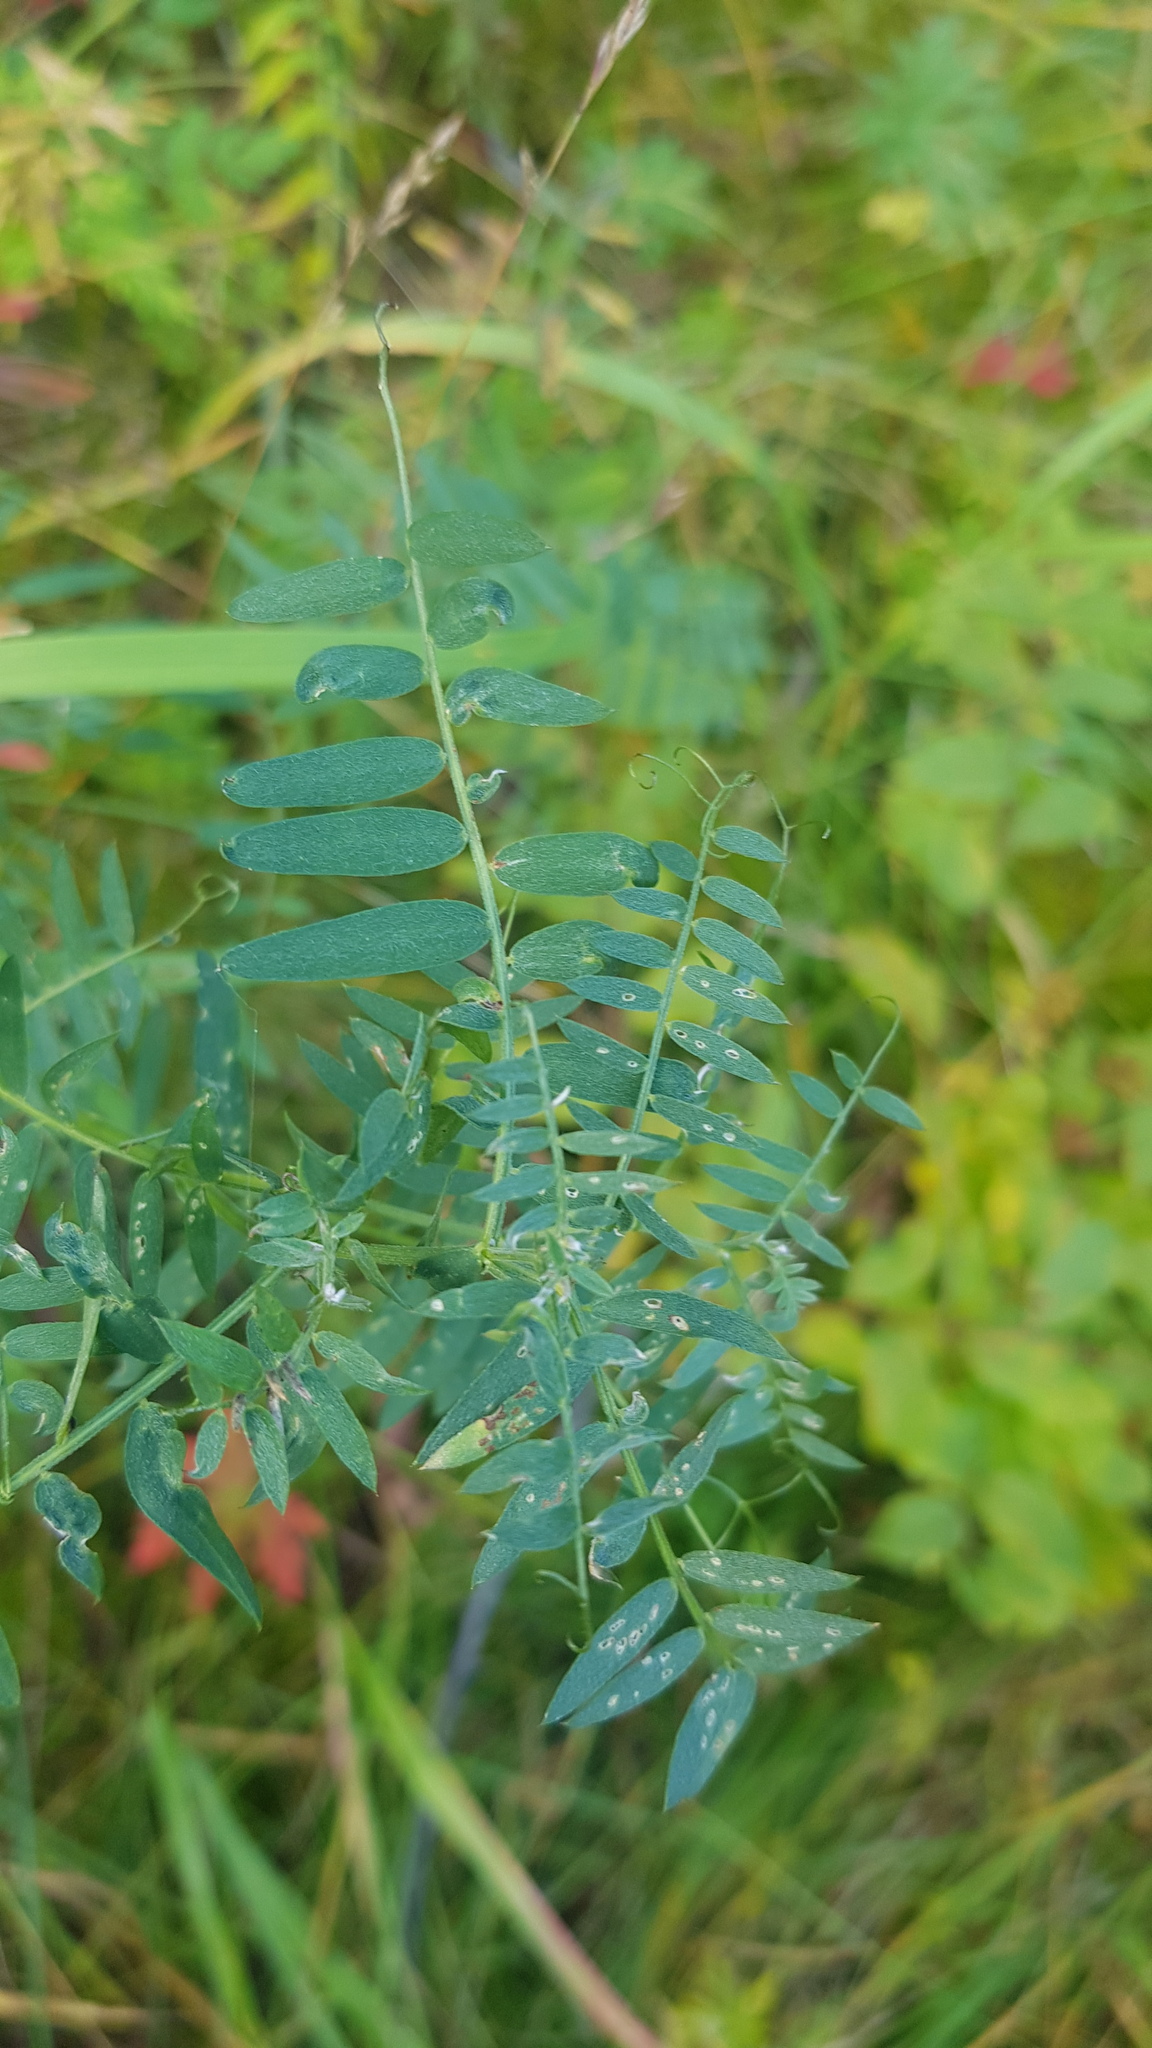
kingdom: Plantae
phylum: Tracheophyta
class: Magnoliopsida
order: Fabales
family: Fabaceae
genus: Vicia
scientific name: Vicia cracca
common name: Bird vetch
